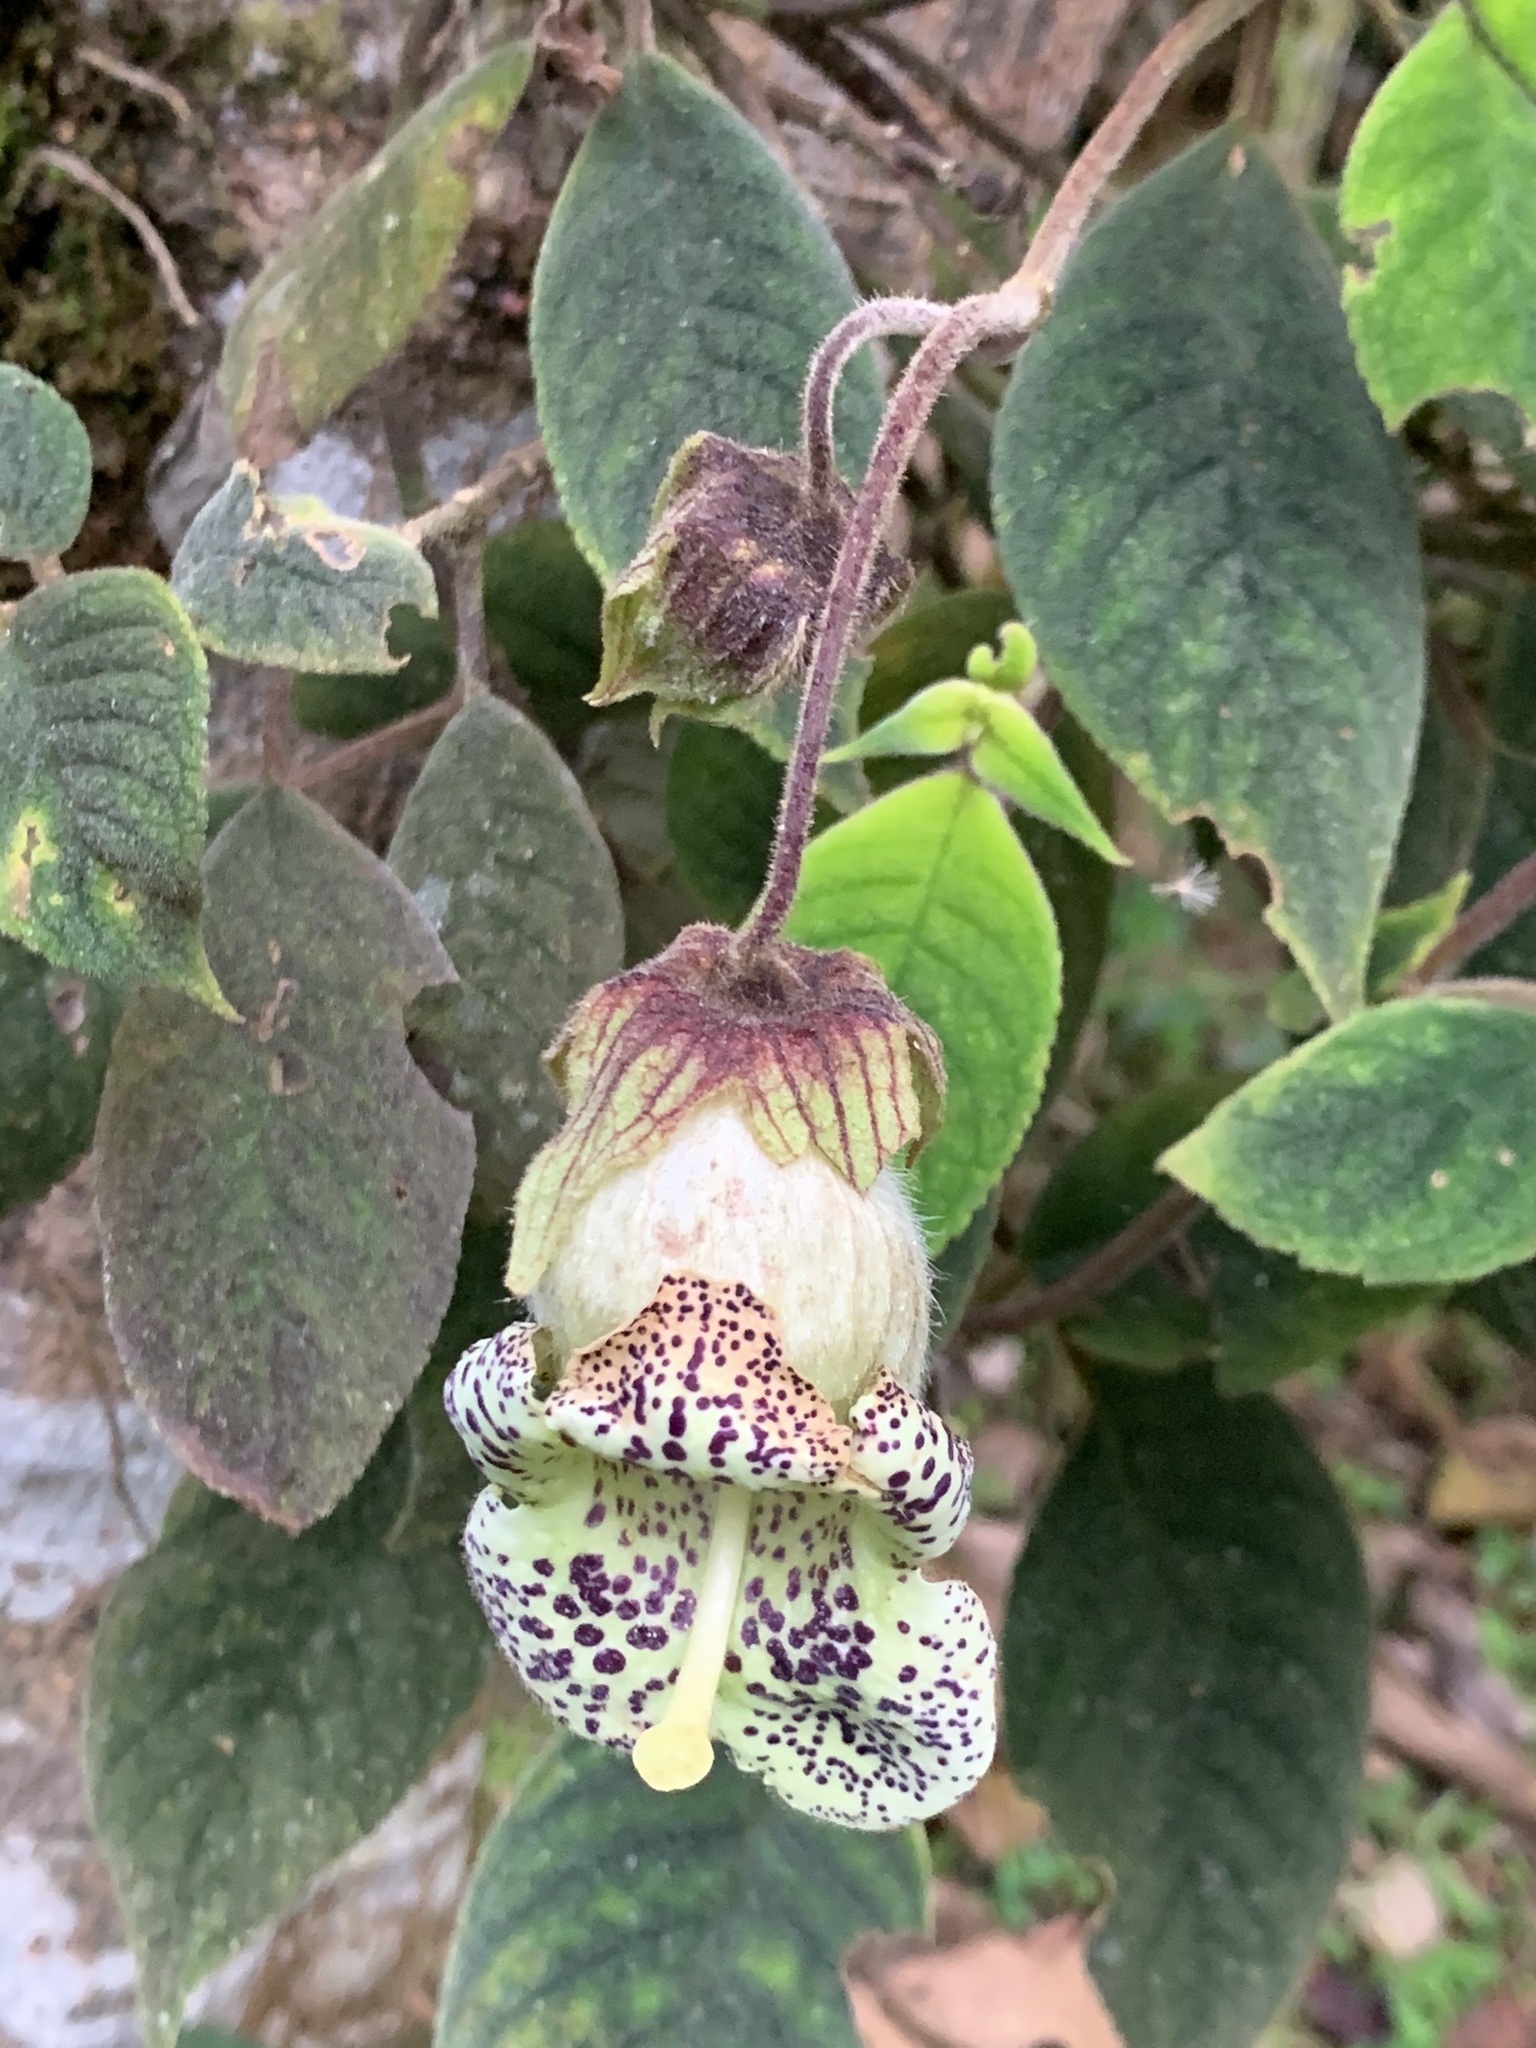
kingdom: Plantae
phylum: Tracheophyta
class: Magnoliopsida
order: Lamiales
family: Gesneriaceae
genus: Kohleria
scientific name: Kohleria tigridia
